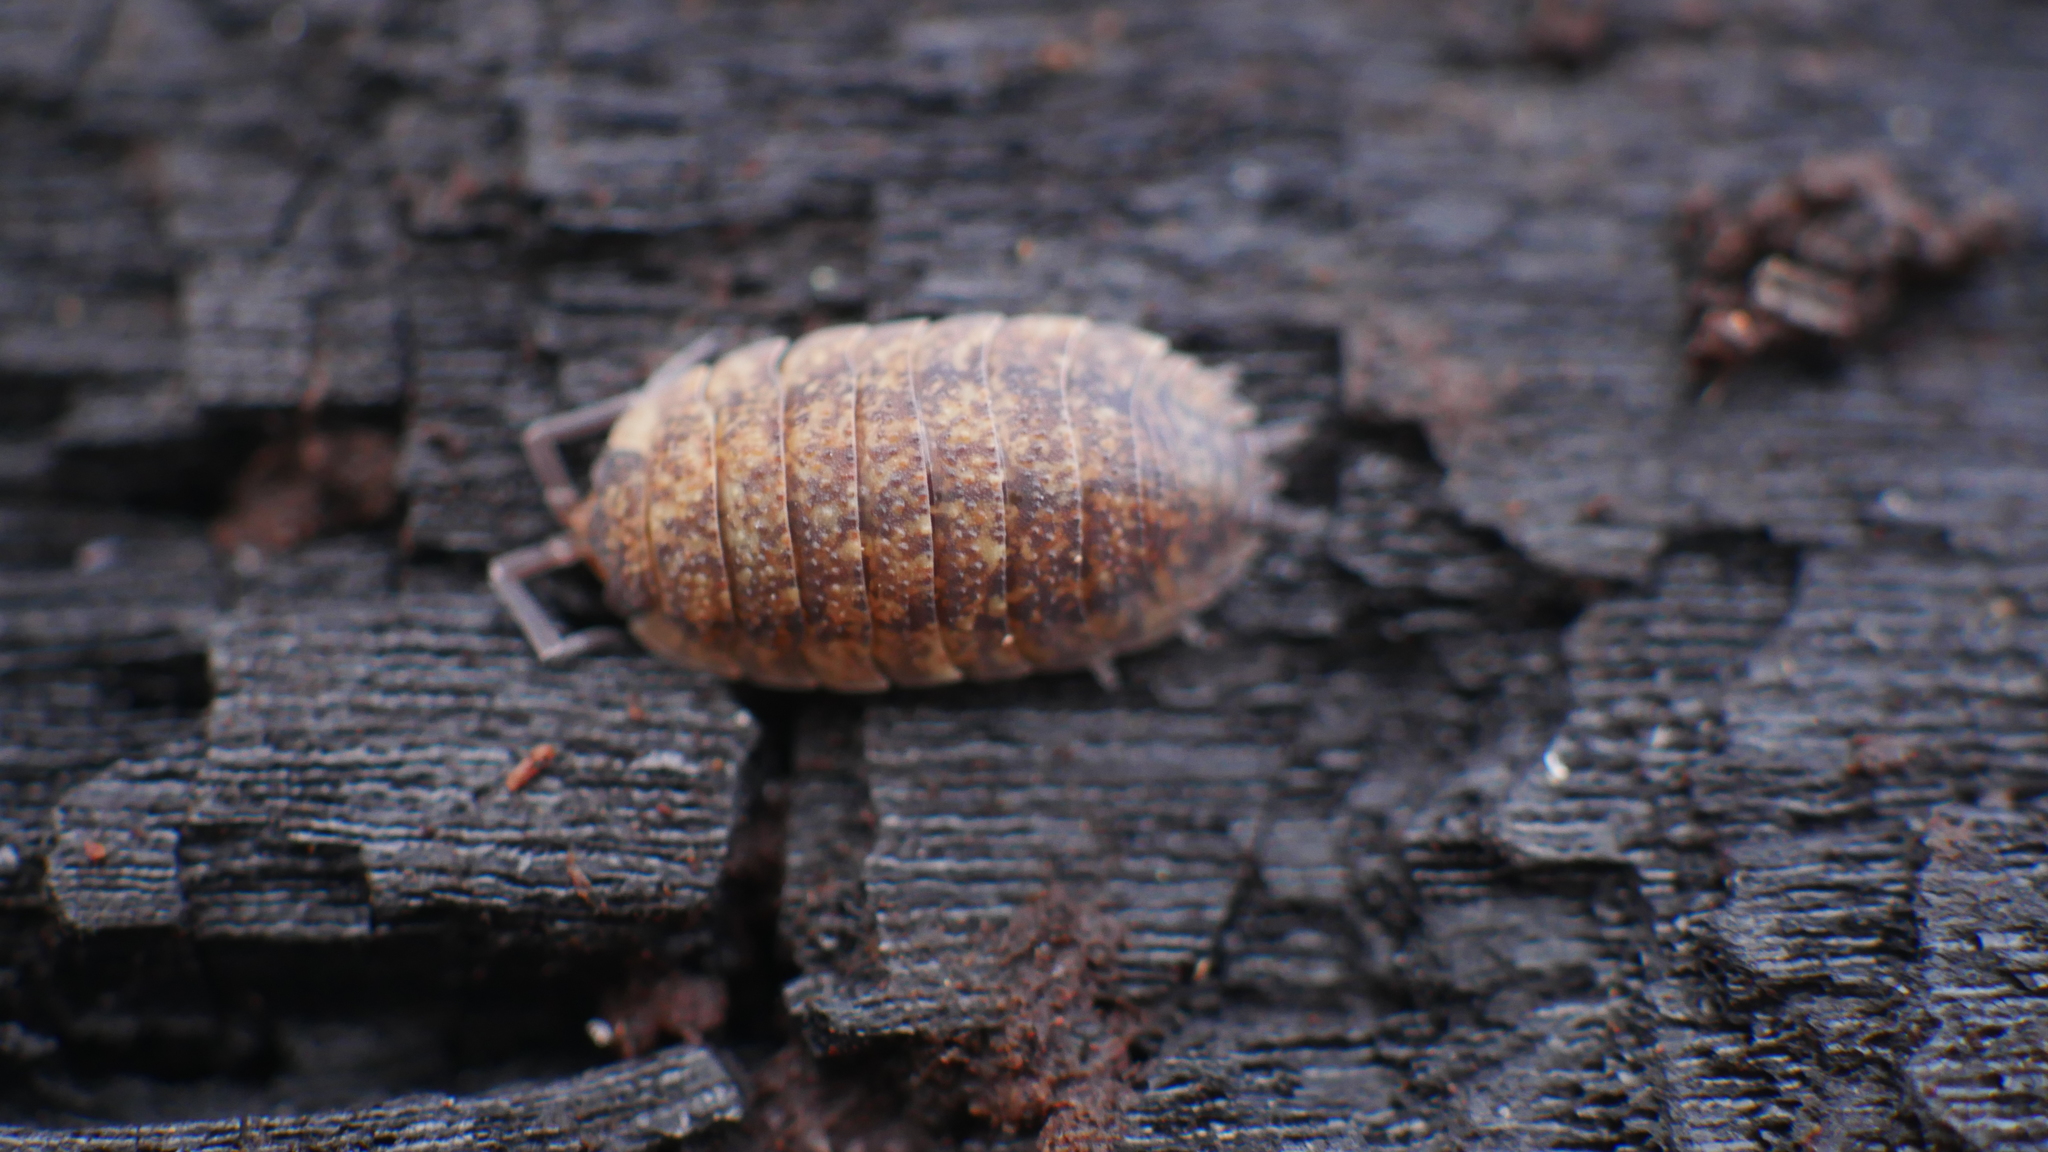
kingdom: Animalia
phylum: Arthropoda
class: Malacostraca
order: Isopoda
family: Porcellionidae
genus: Porcellio
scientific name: Porcellio scaber
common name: Common rough woodlouse
